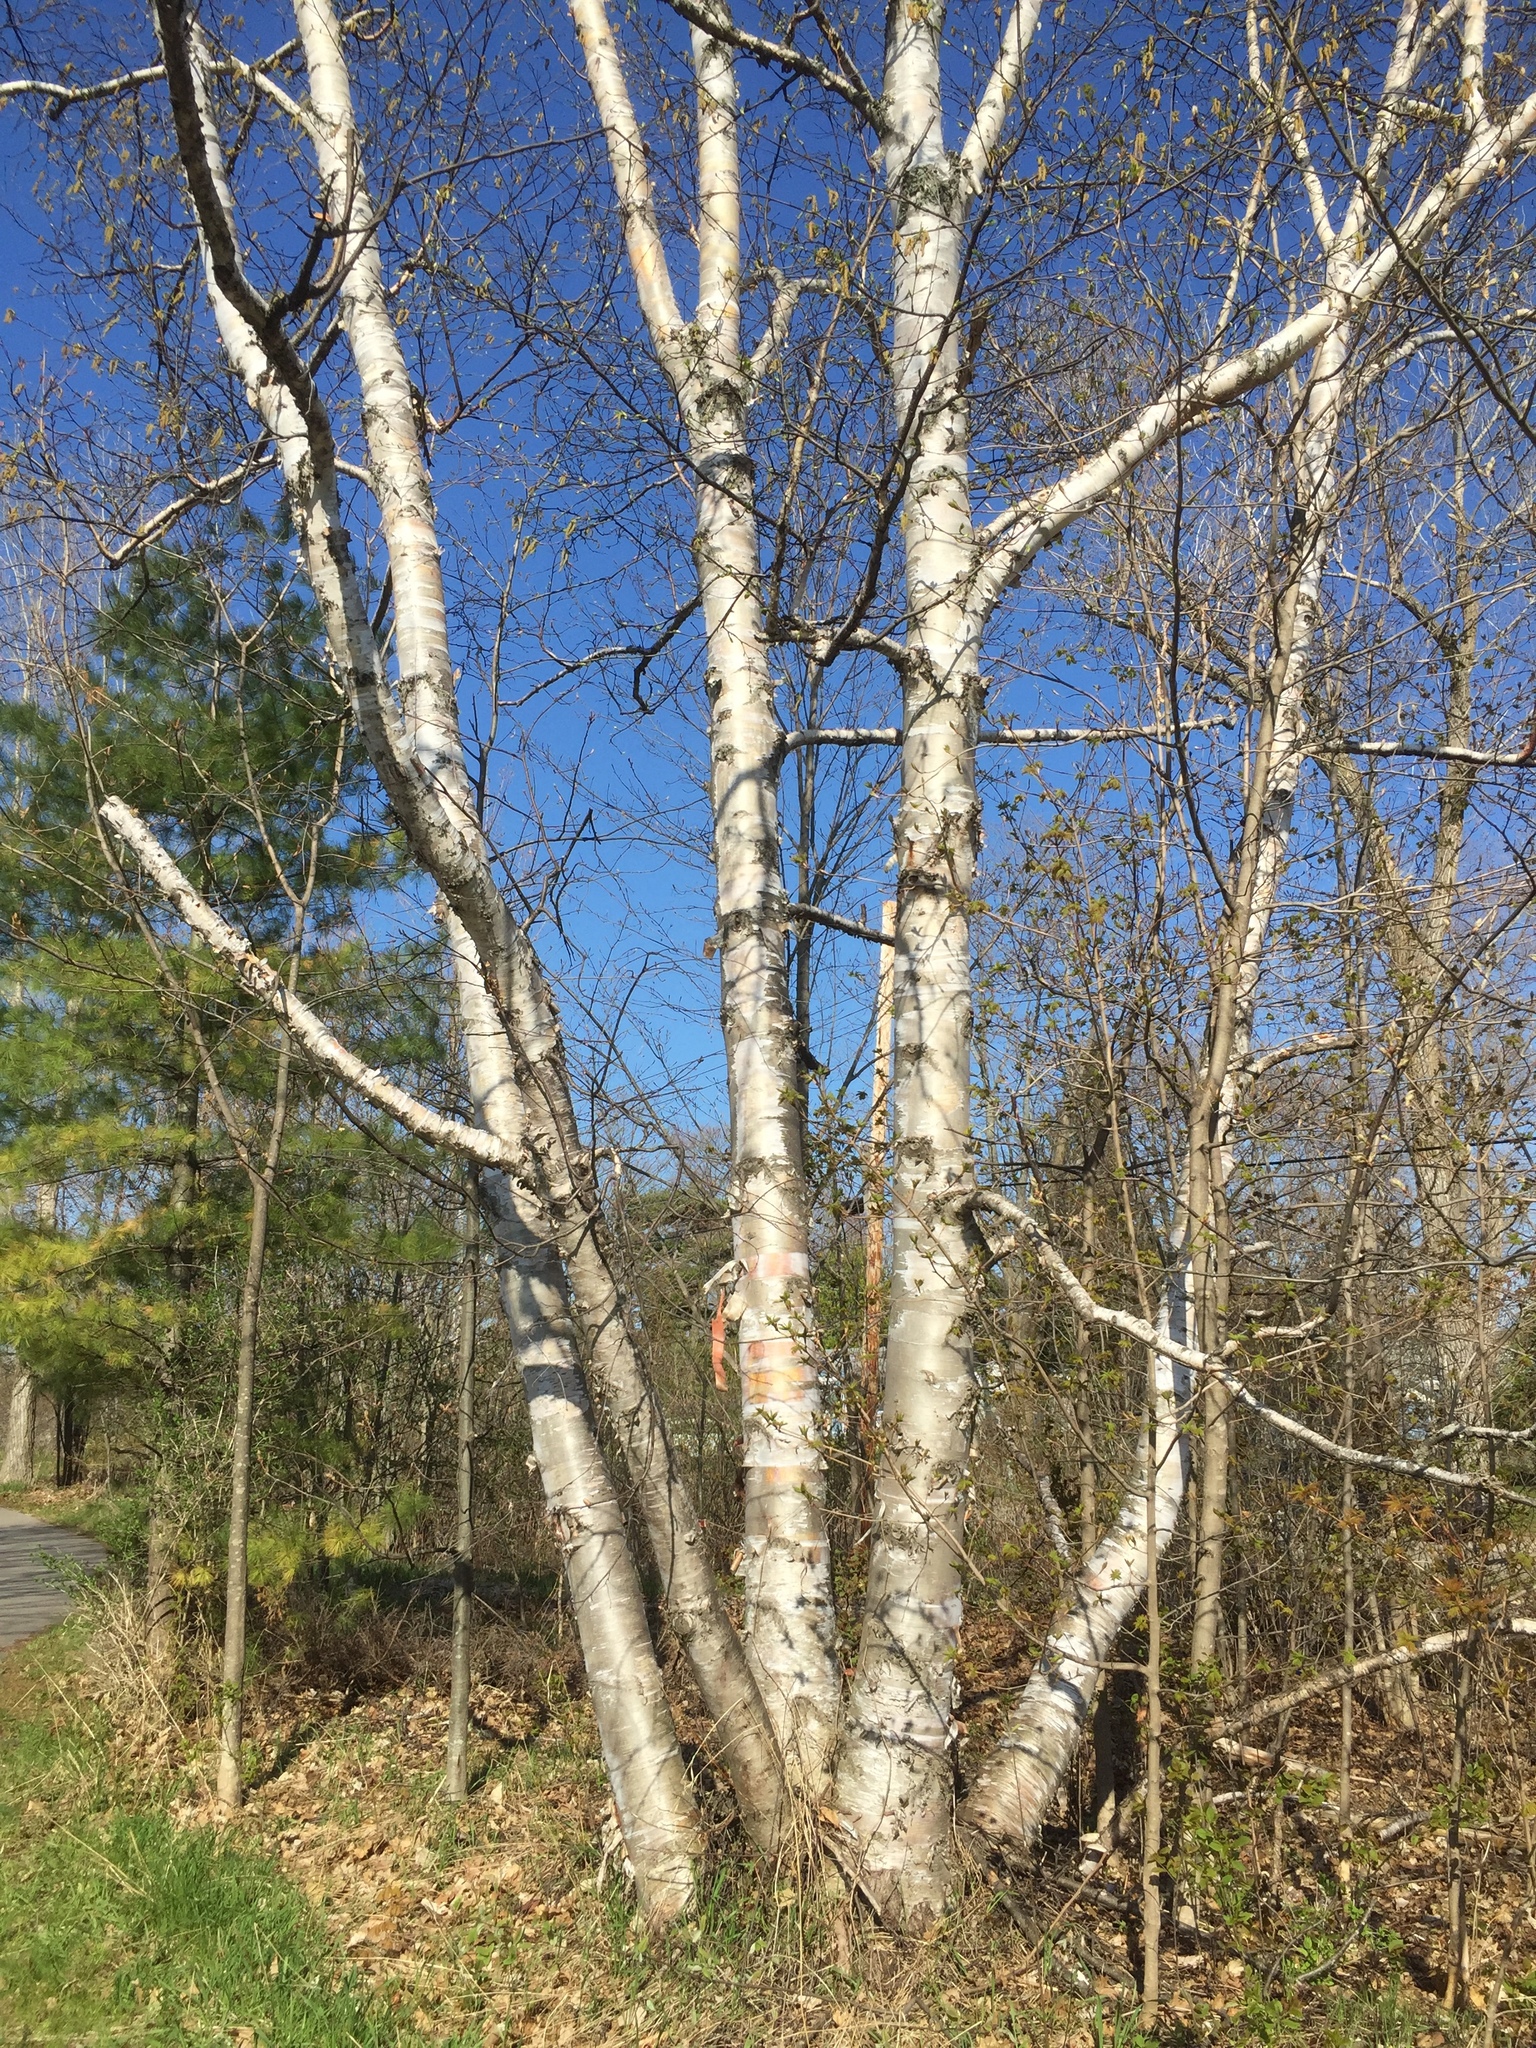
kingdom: Plantae
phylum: Tracheophyta
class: Magnoliopsida
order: Fagales
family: Betulaceae
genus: Betula
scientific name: Betula papyrifera
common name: Paper birch
